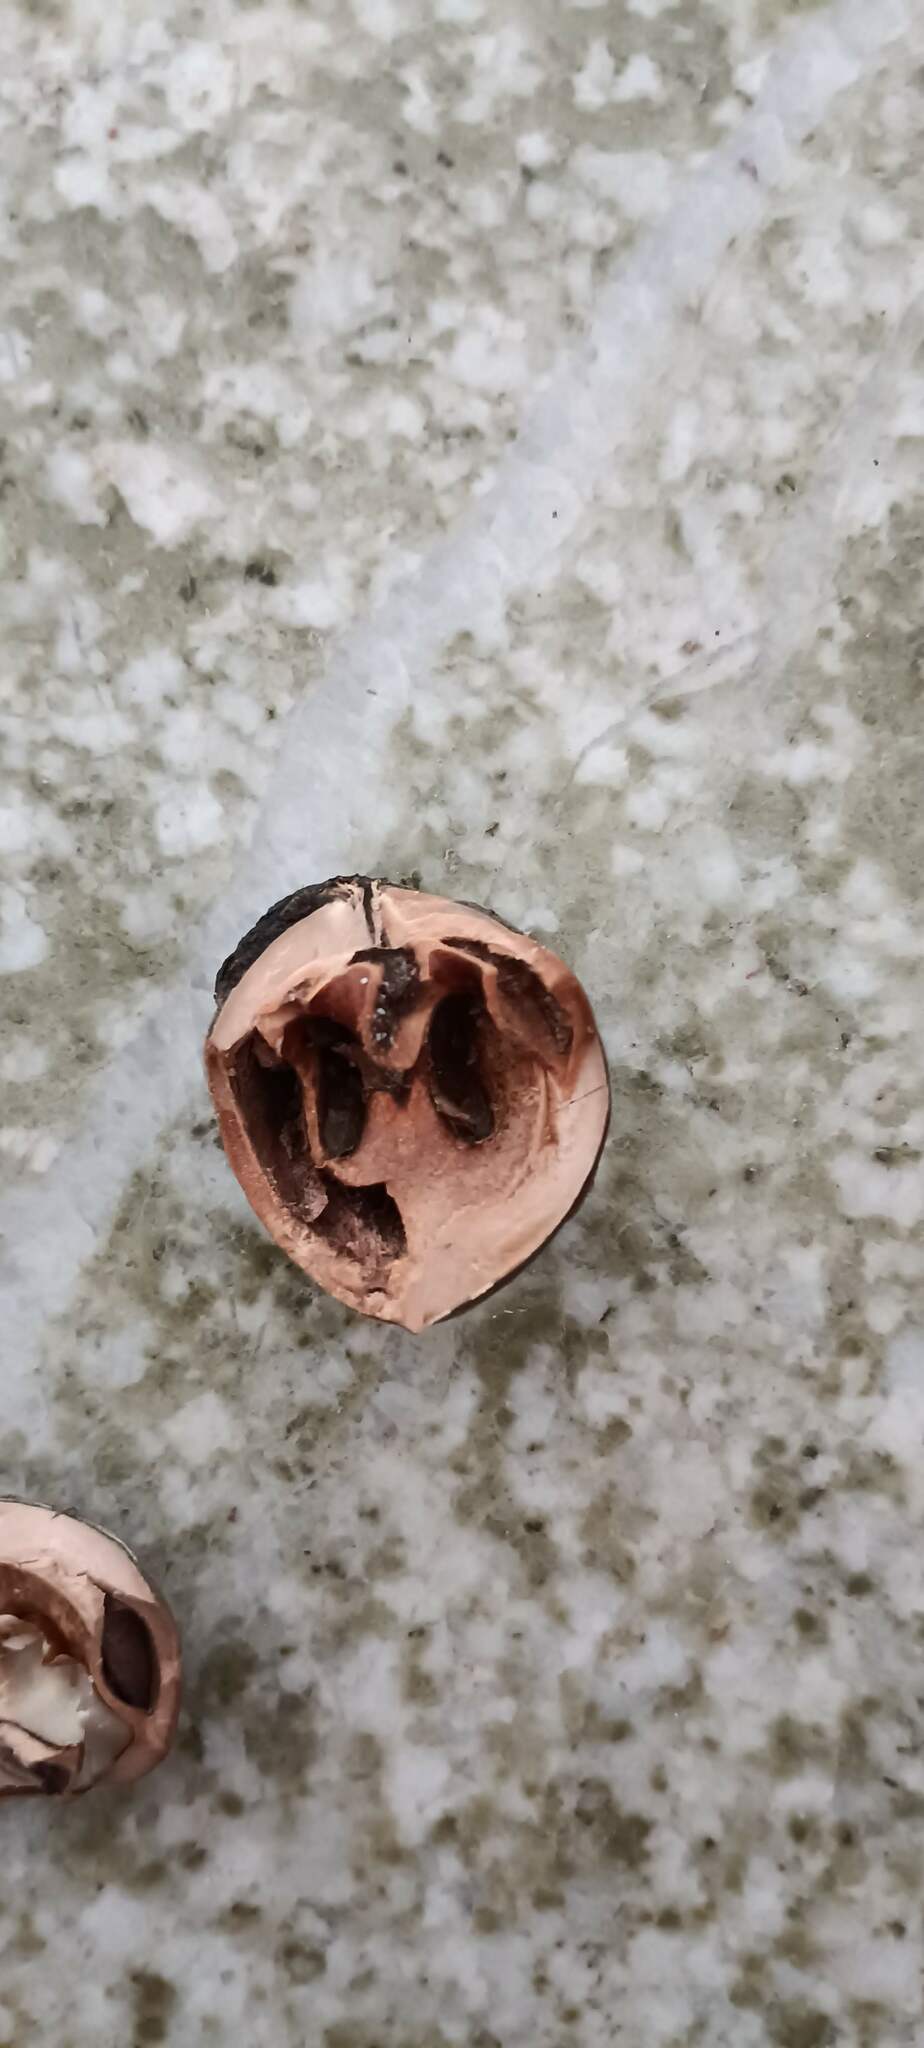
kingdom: Plantae
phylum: Tracheophyta
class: Magnoliopsida
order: Fagales
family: Juglandaceae
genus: Juglans
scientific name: Juglans californica
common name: Southern california black walnut
